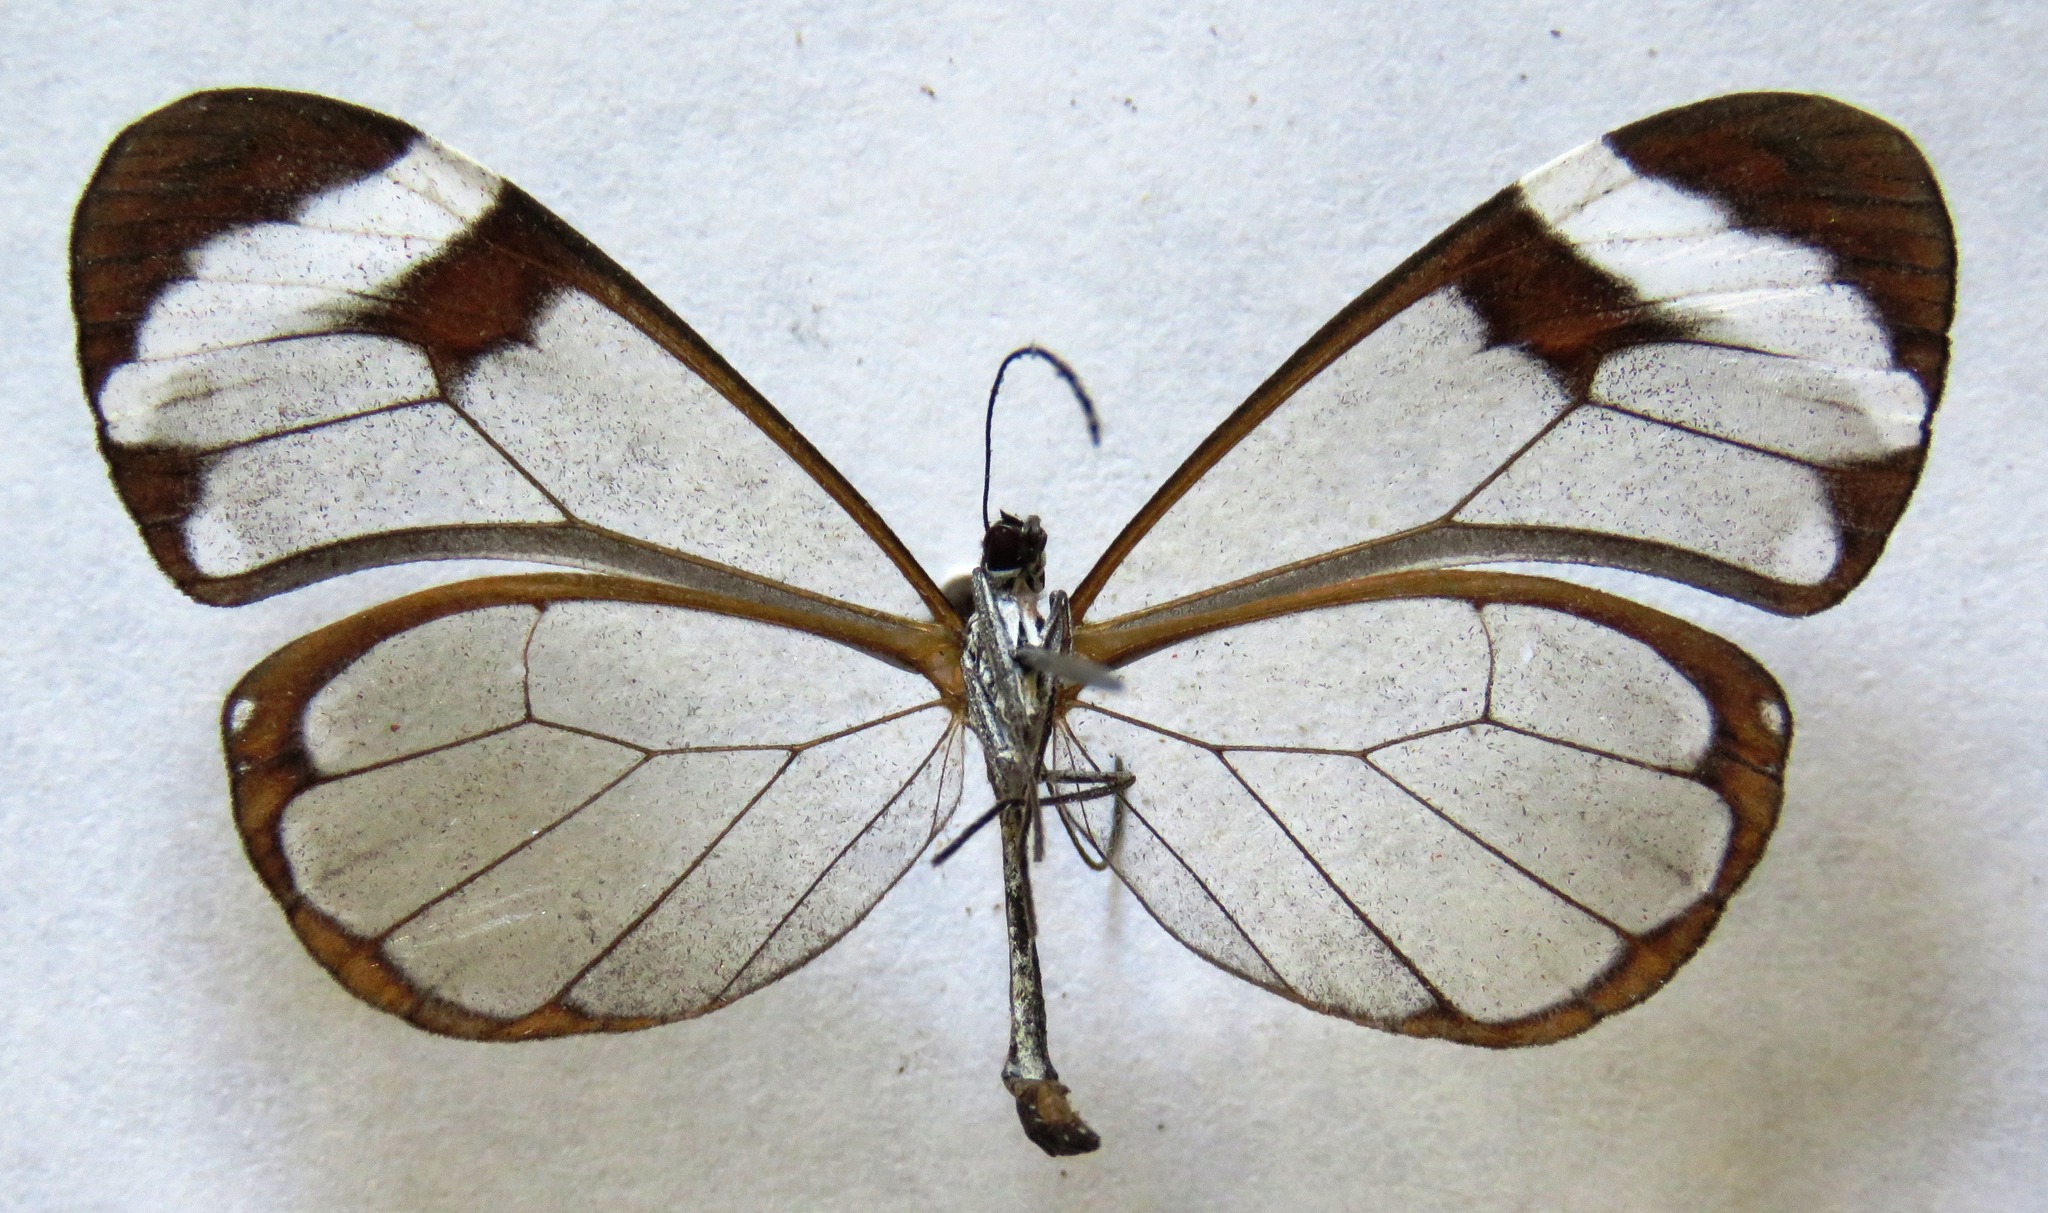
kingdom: Animalia
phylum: Arthropoda
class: Insecta
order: Lepidoptera
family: Nymphalidae
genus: Greta
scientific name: Greta morgane
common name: Thick-tipped greta
